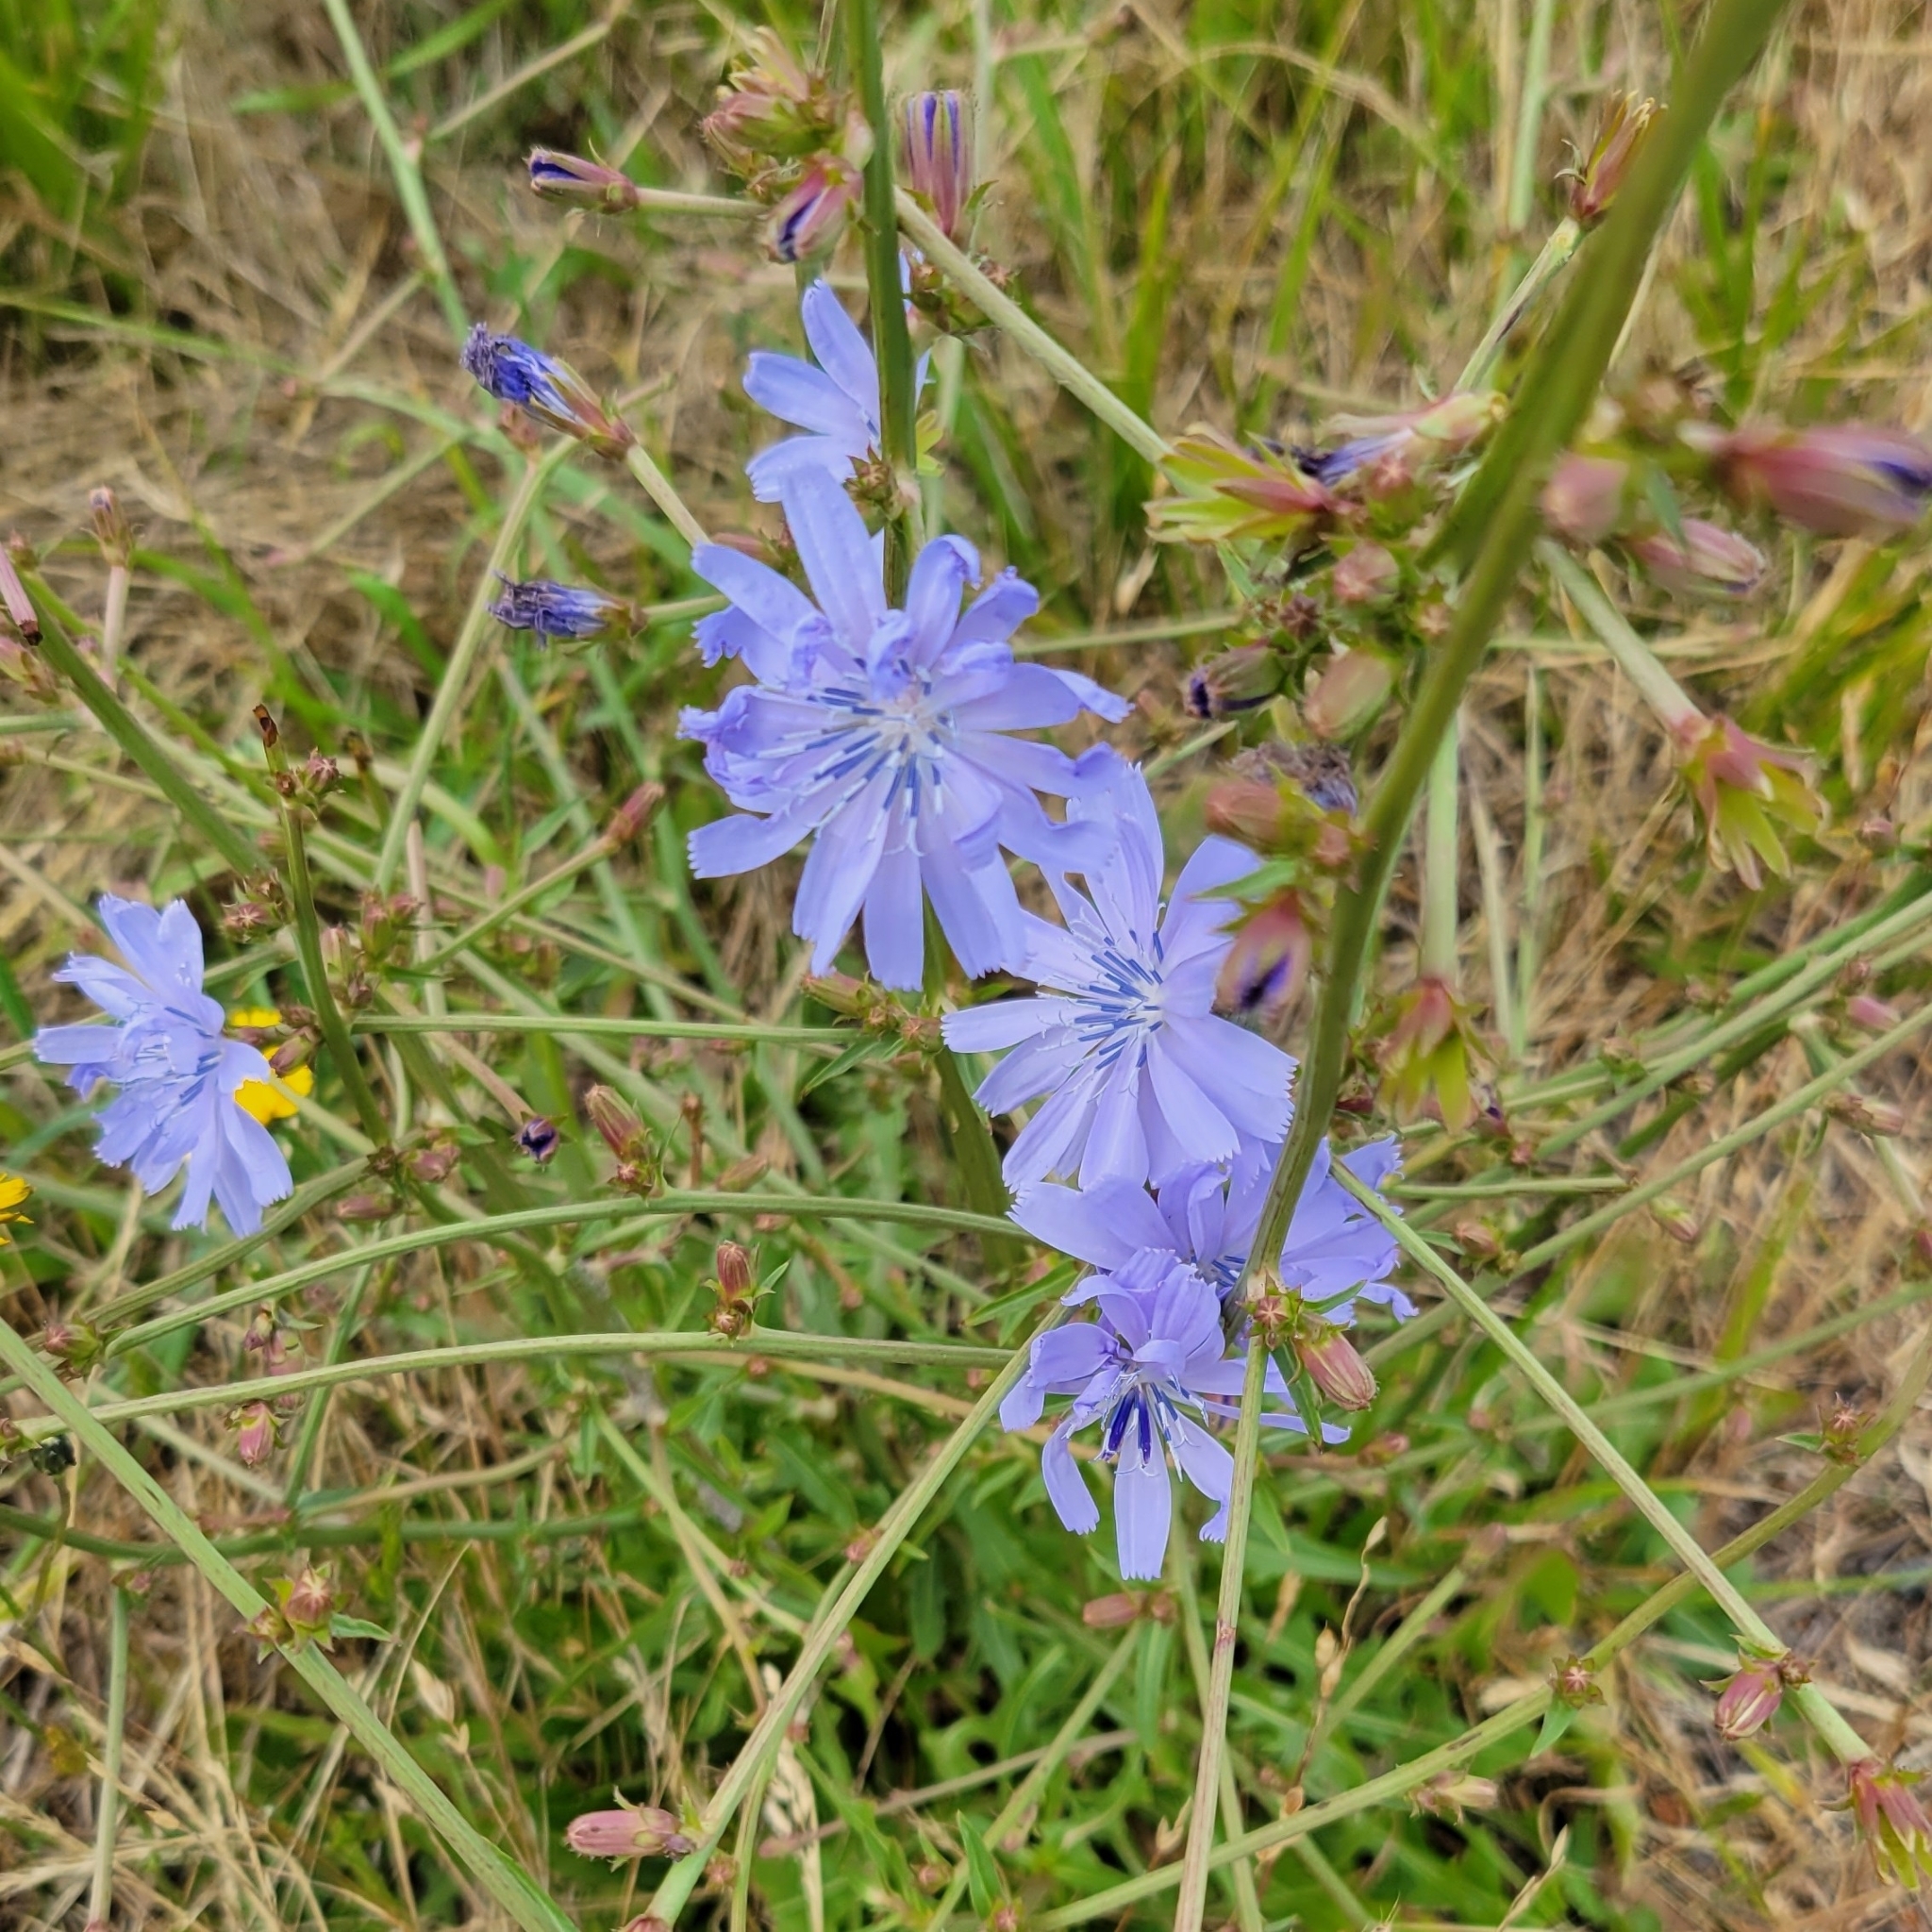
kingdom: Plantae
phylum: Tracheophyta
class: Magnoliopsida
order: Asterales
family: Asteraceae
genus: Cichorium
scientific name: Cichorium intybus
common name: Chicory
